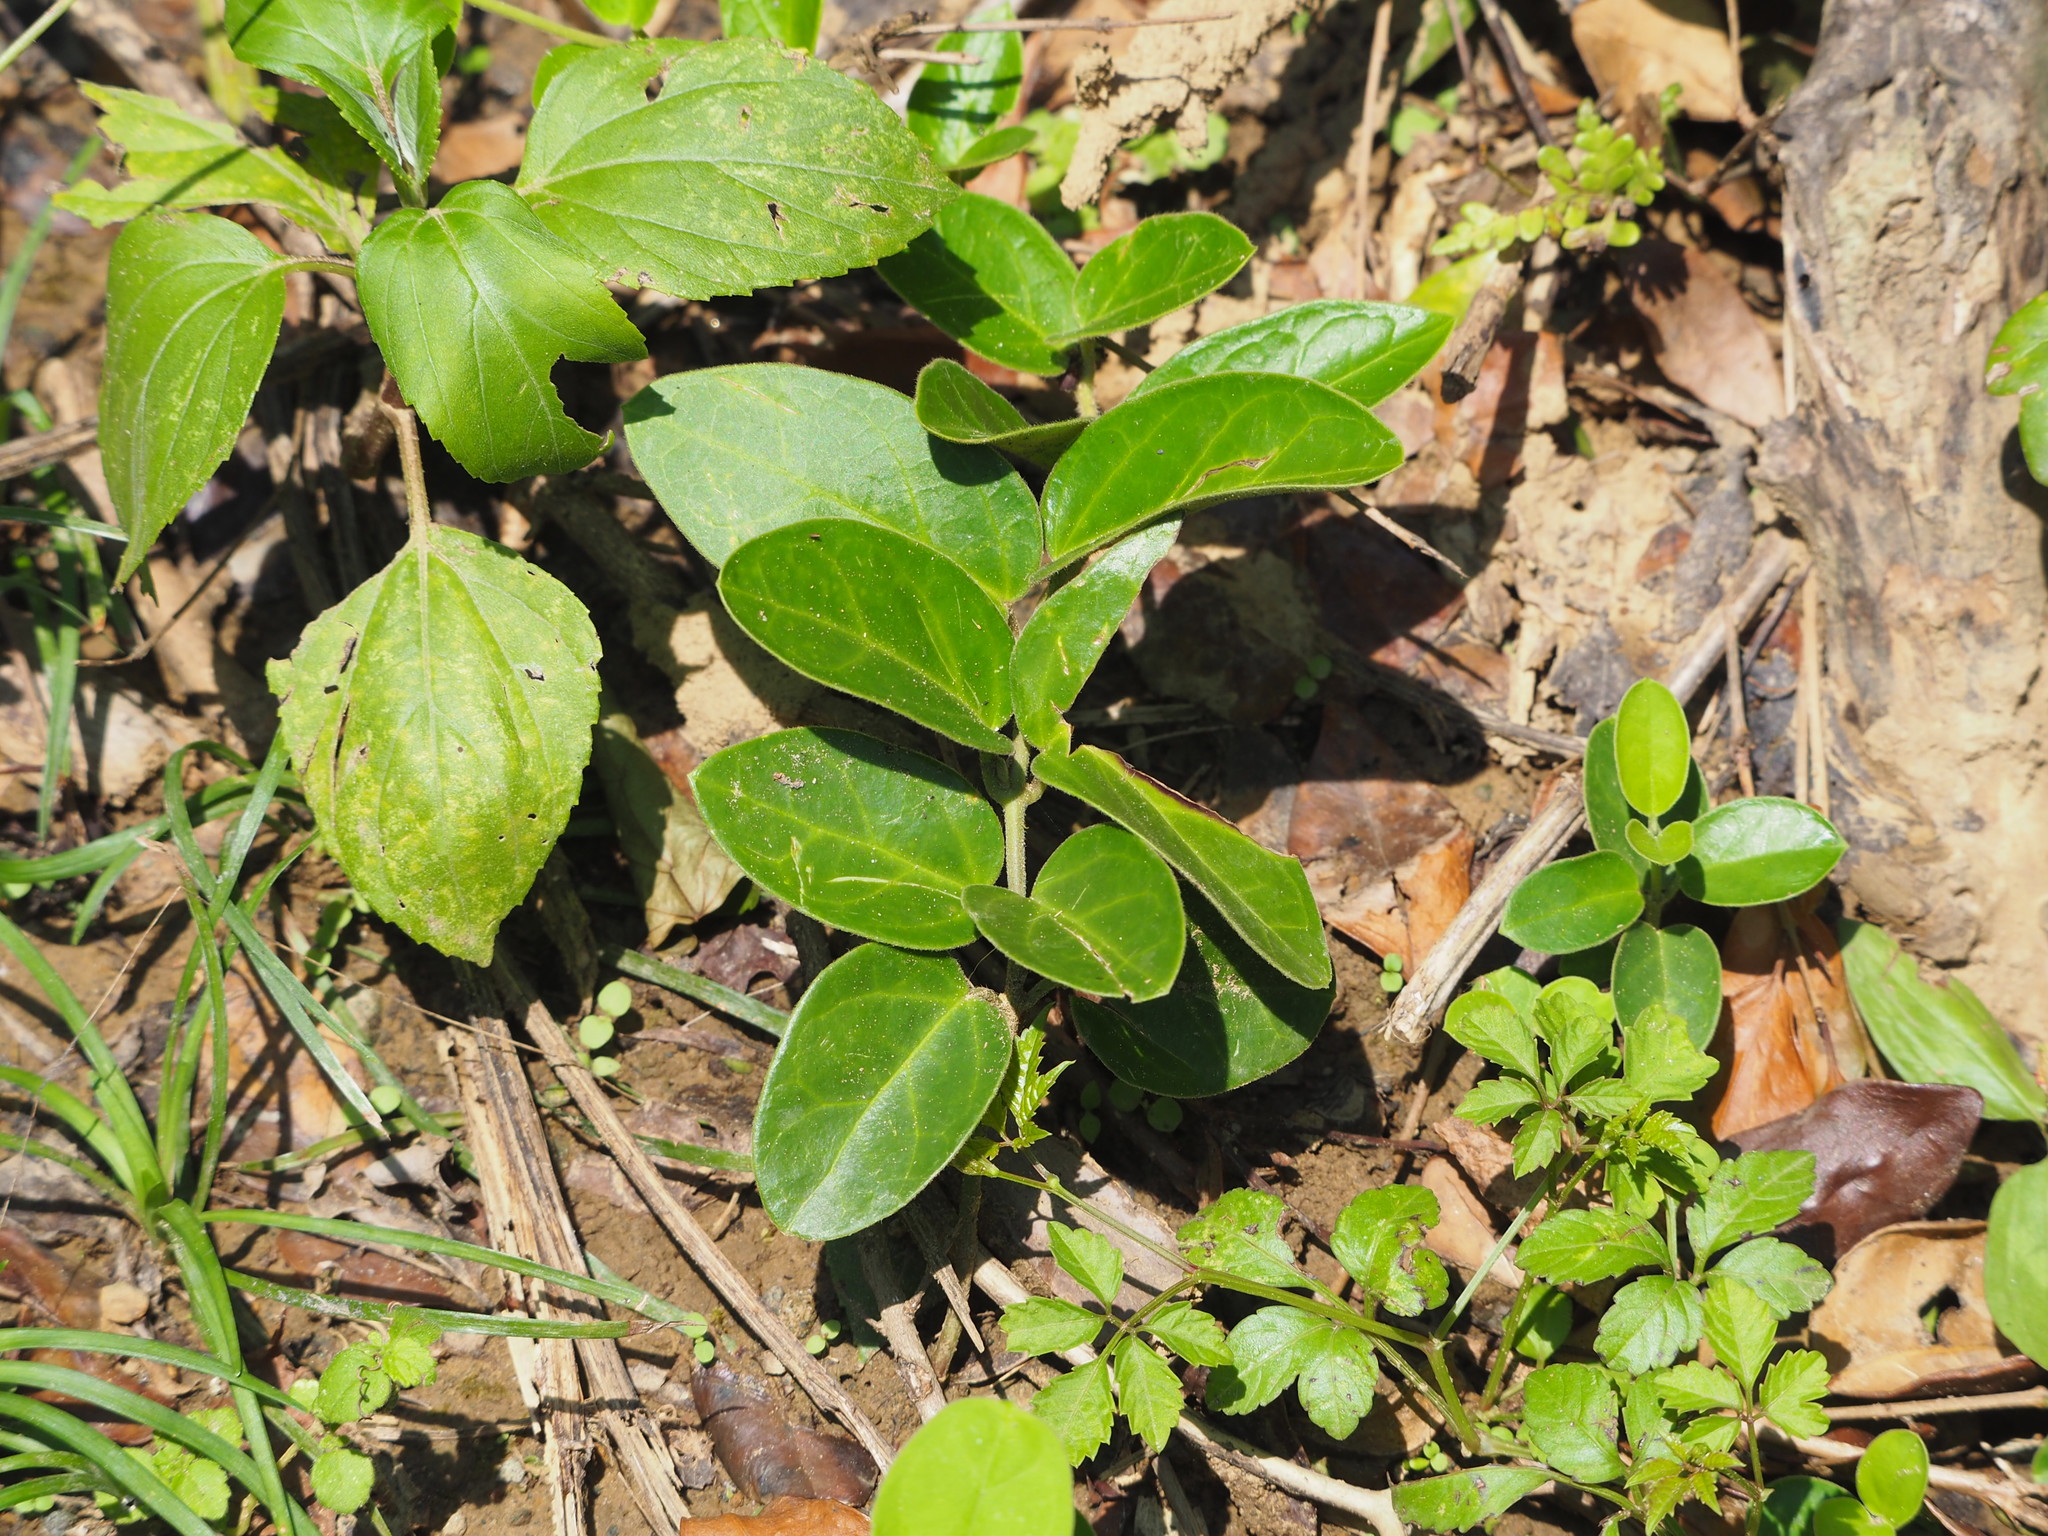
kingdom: Plantae
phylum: Tracheophyta
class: Magnoliopsida
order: Gentianales
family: Apocynaceae
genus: Vincetoxicum
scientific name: Vincetoxicum hirsutum
